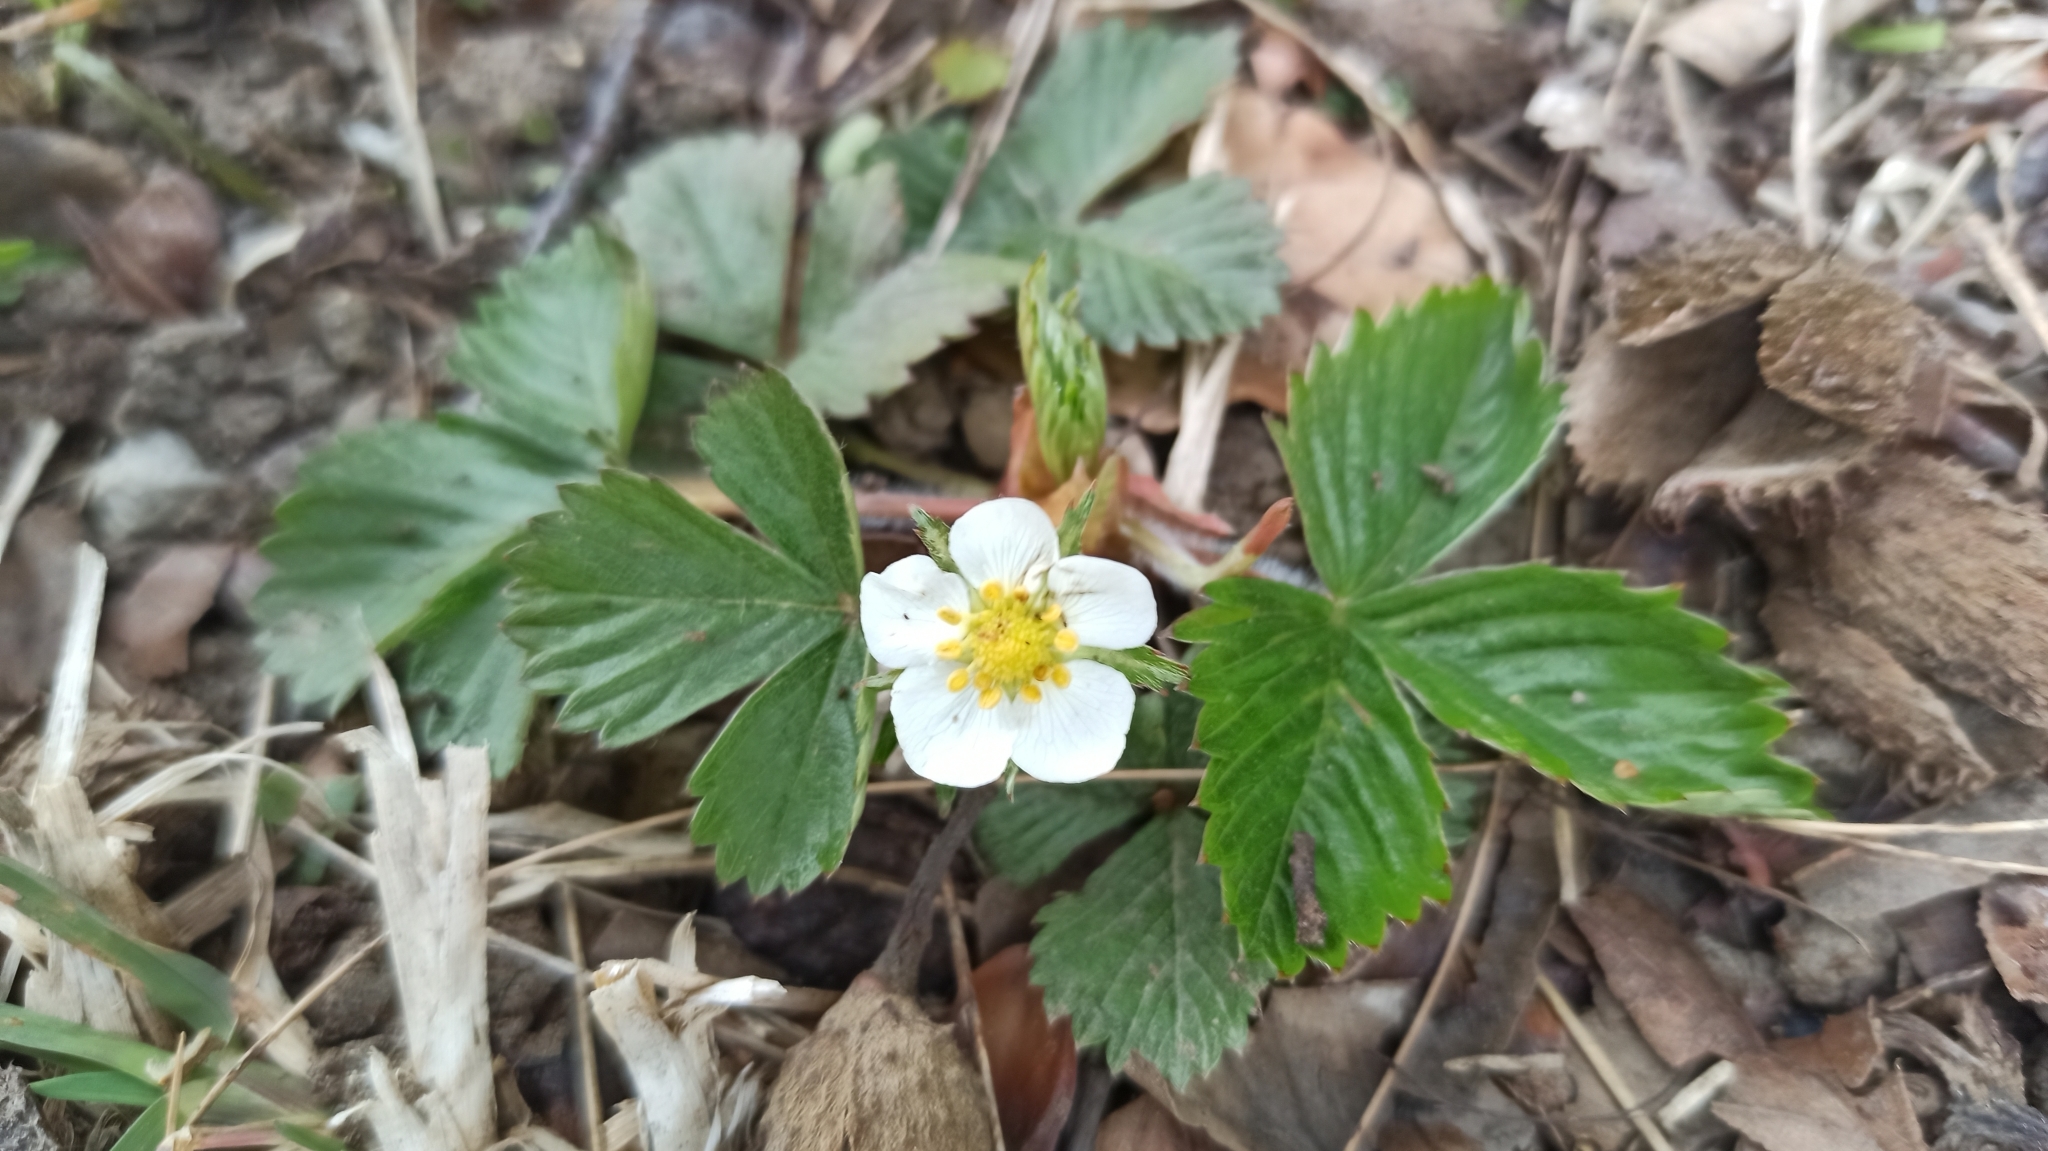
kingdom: Plantae
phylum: Tracheophyta
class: Magnoliopsida
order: Rosales
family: Rosaceae
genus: Fragaria
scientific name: Fragaria vesca
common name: Wild strawberry
